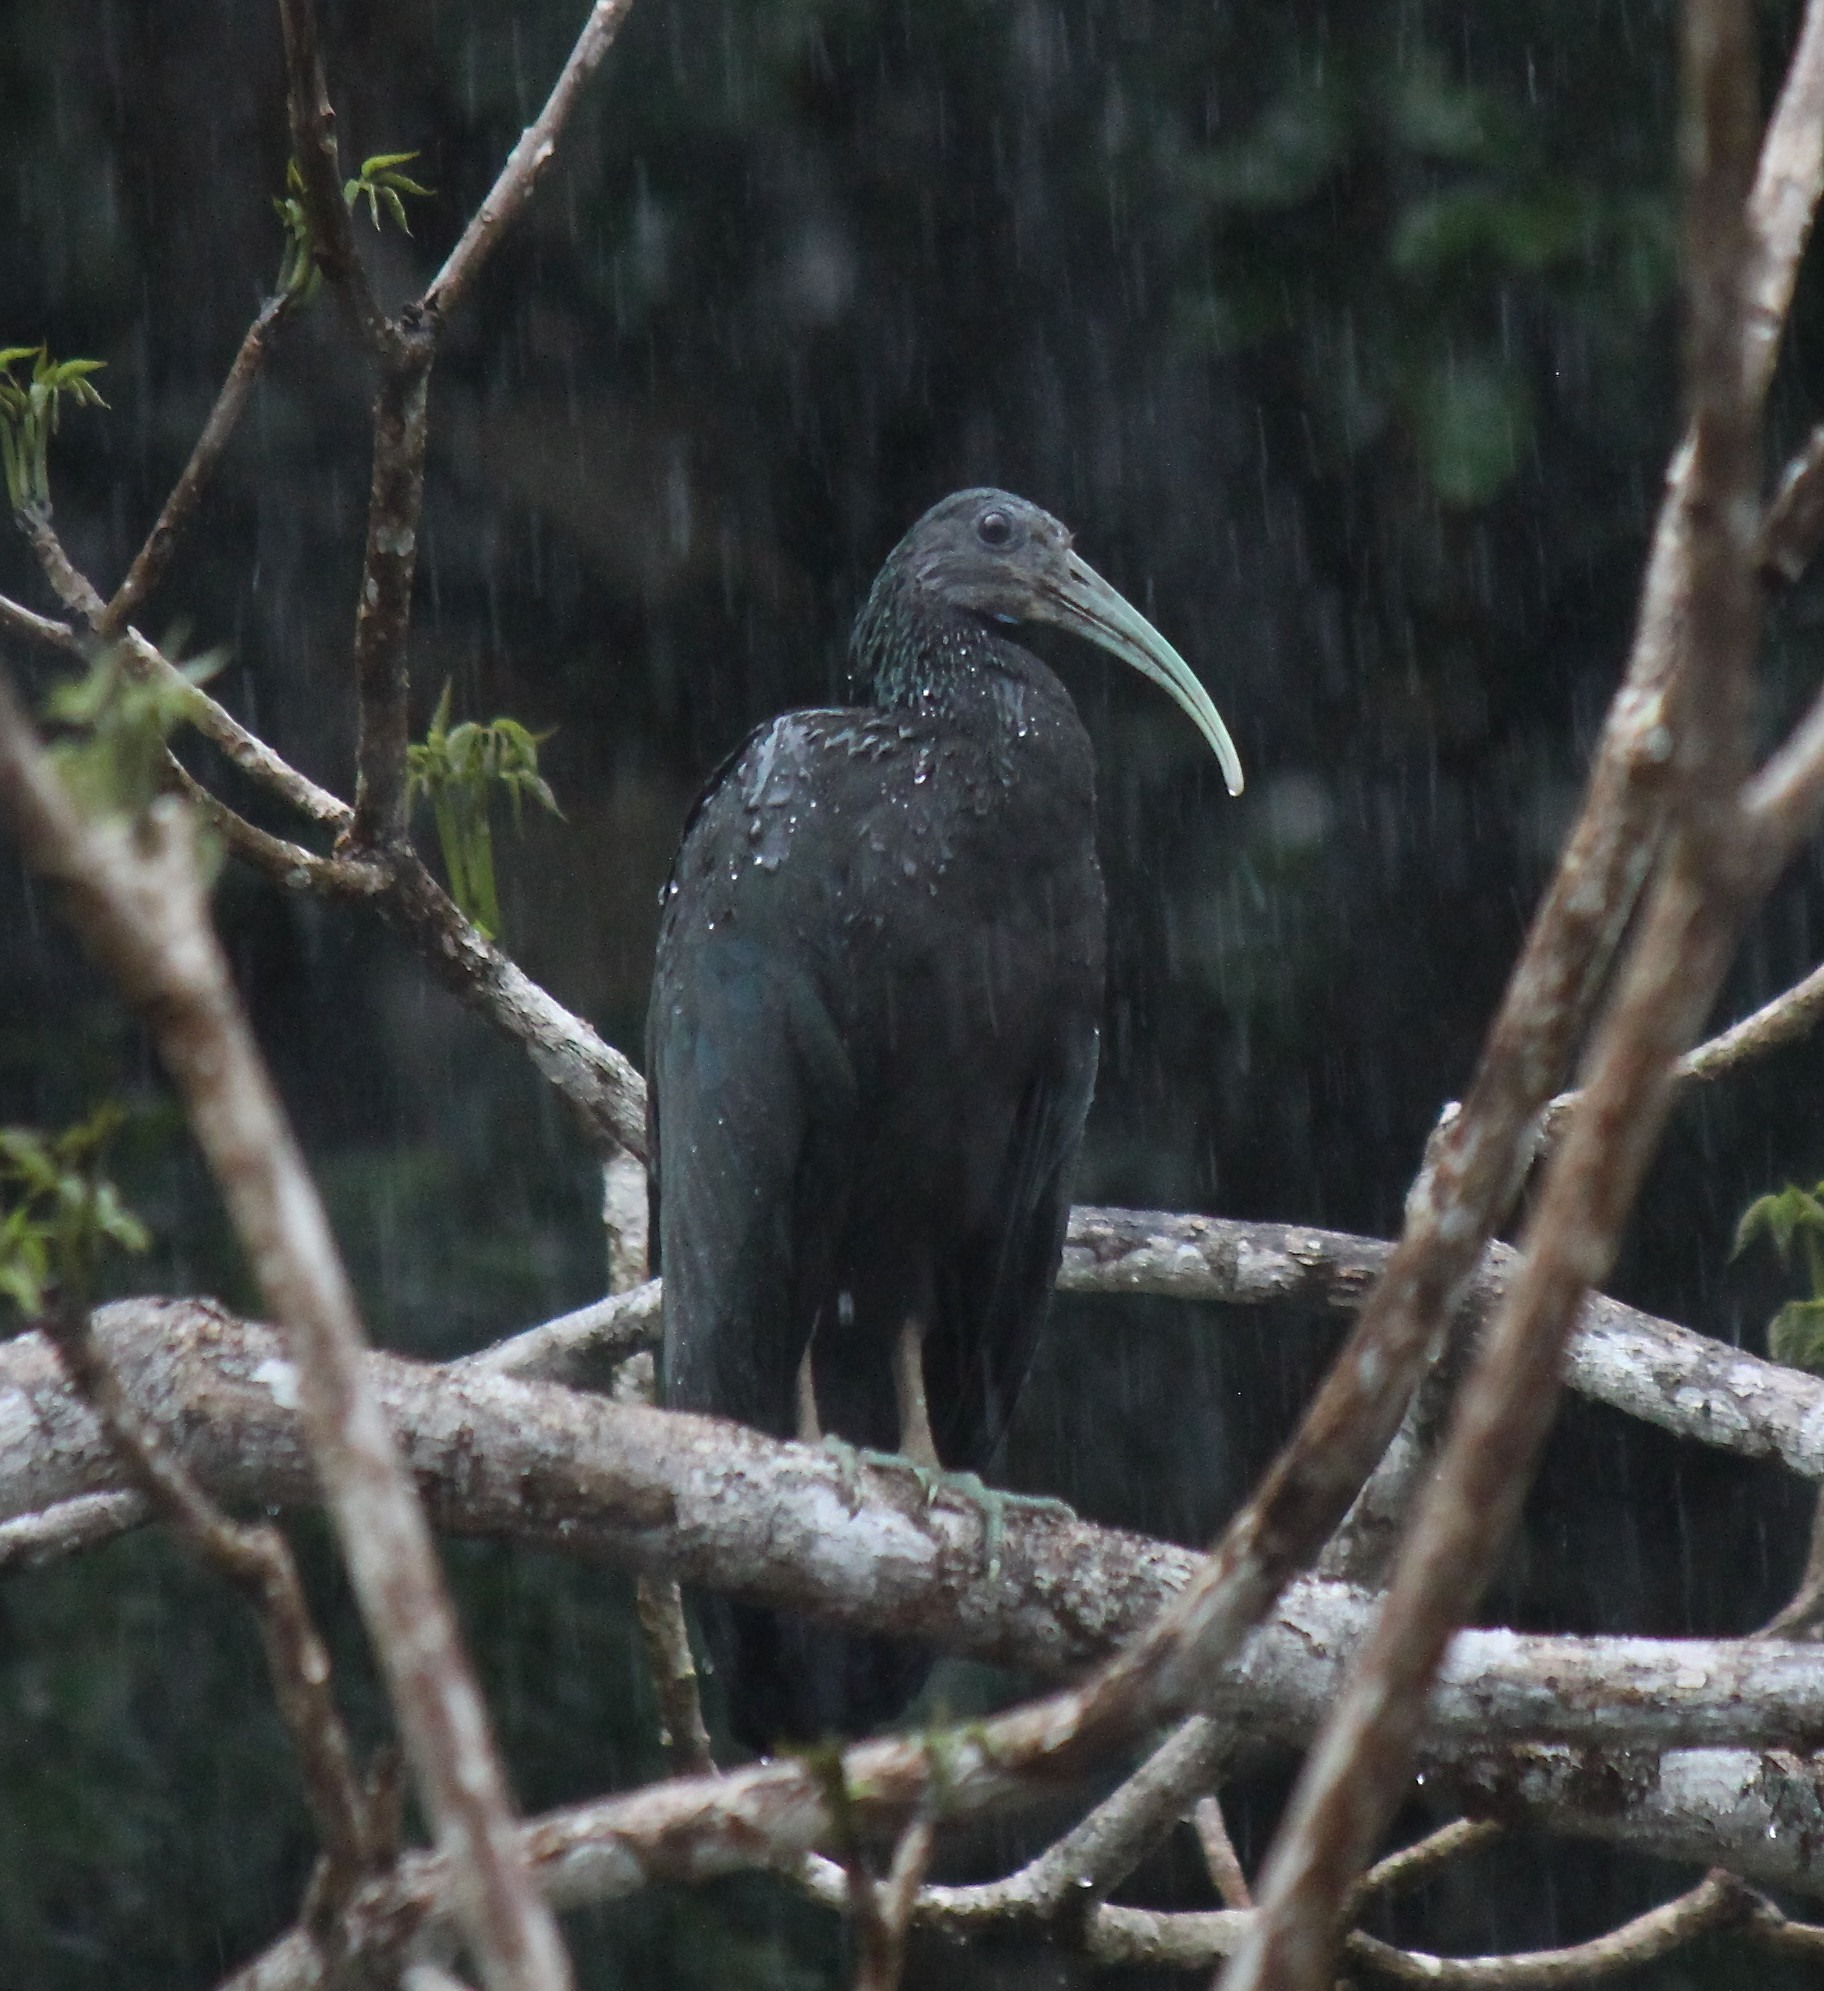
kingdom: Animalia
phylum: Chordata
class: Aves
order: Pelecaniformes
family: Threskiornithidae
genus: Mesembrinibis
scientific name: Mesembrinibis cayennensis
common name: Green ibis
